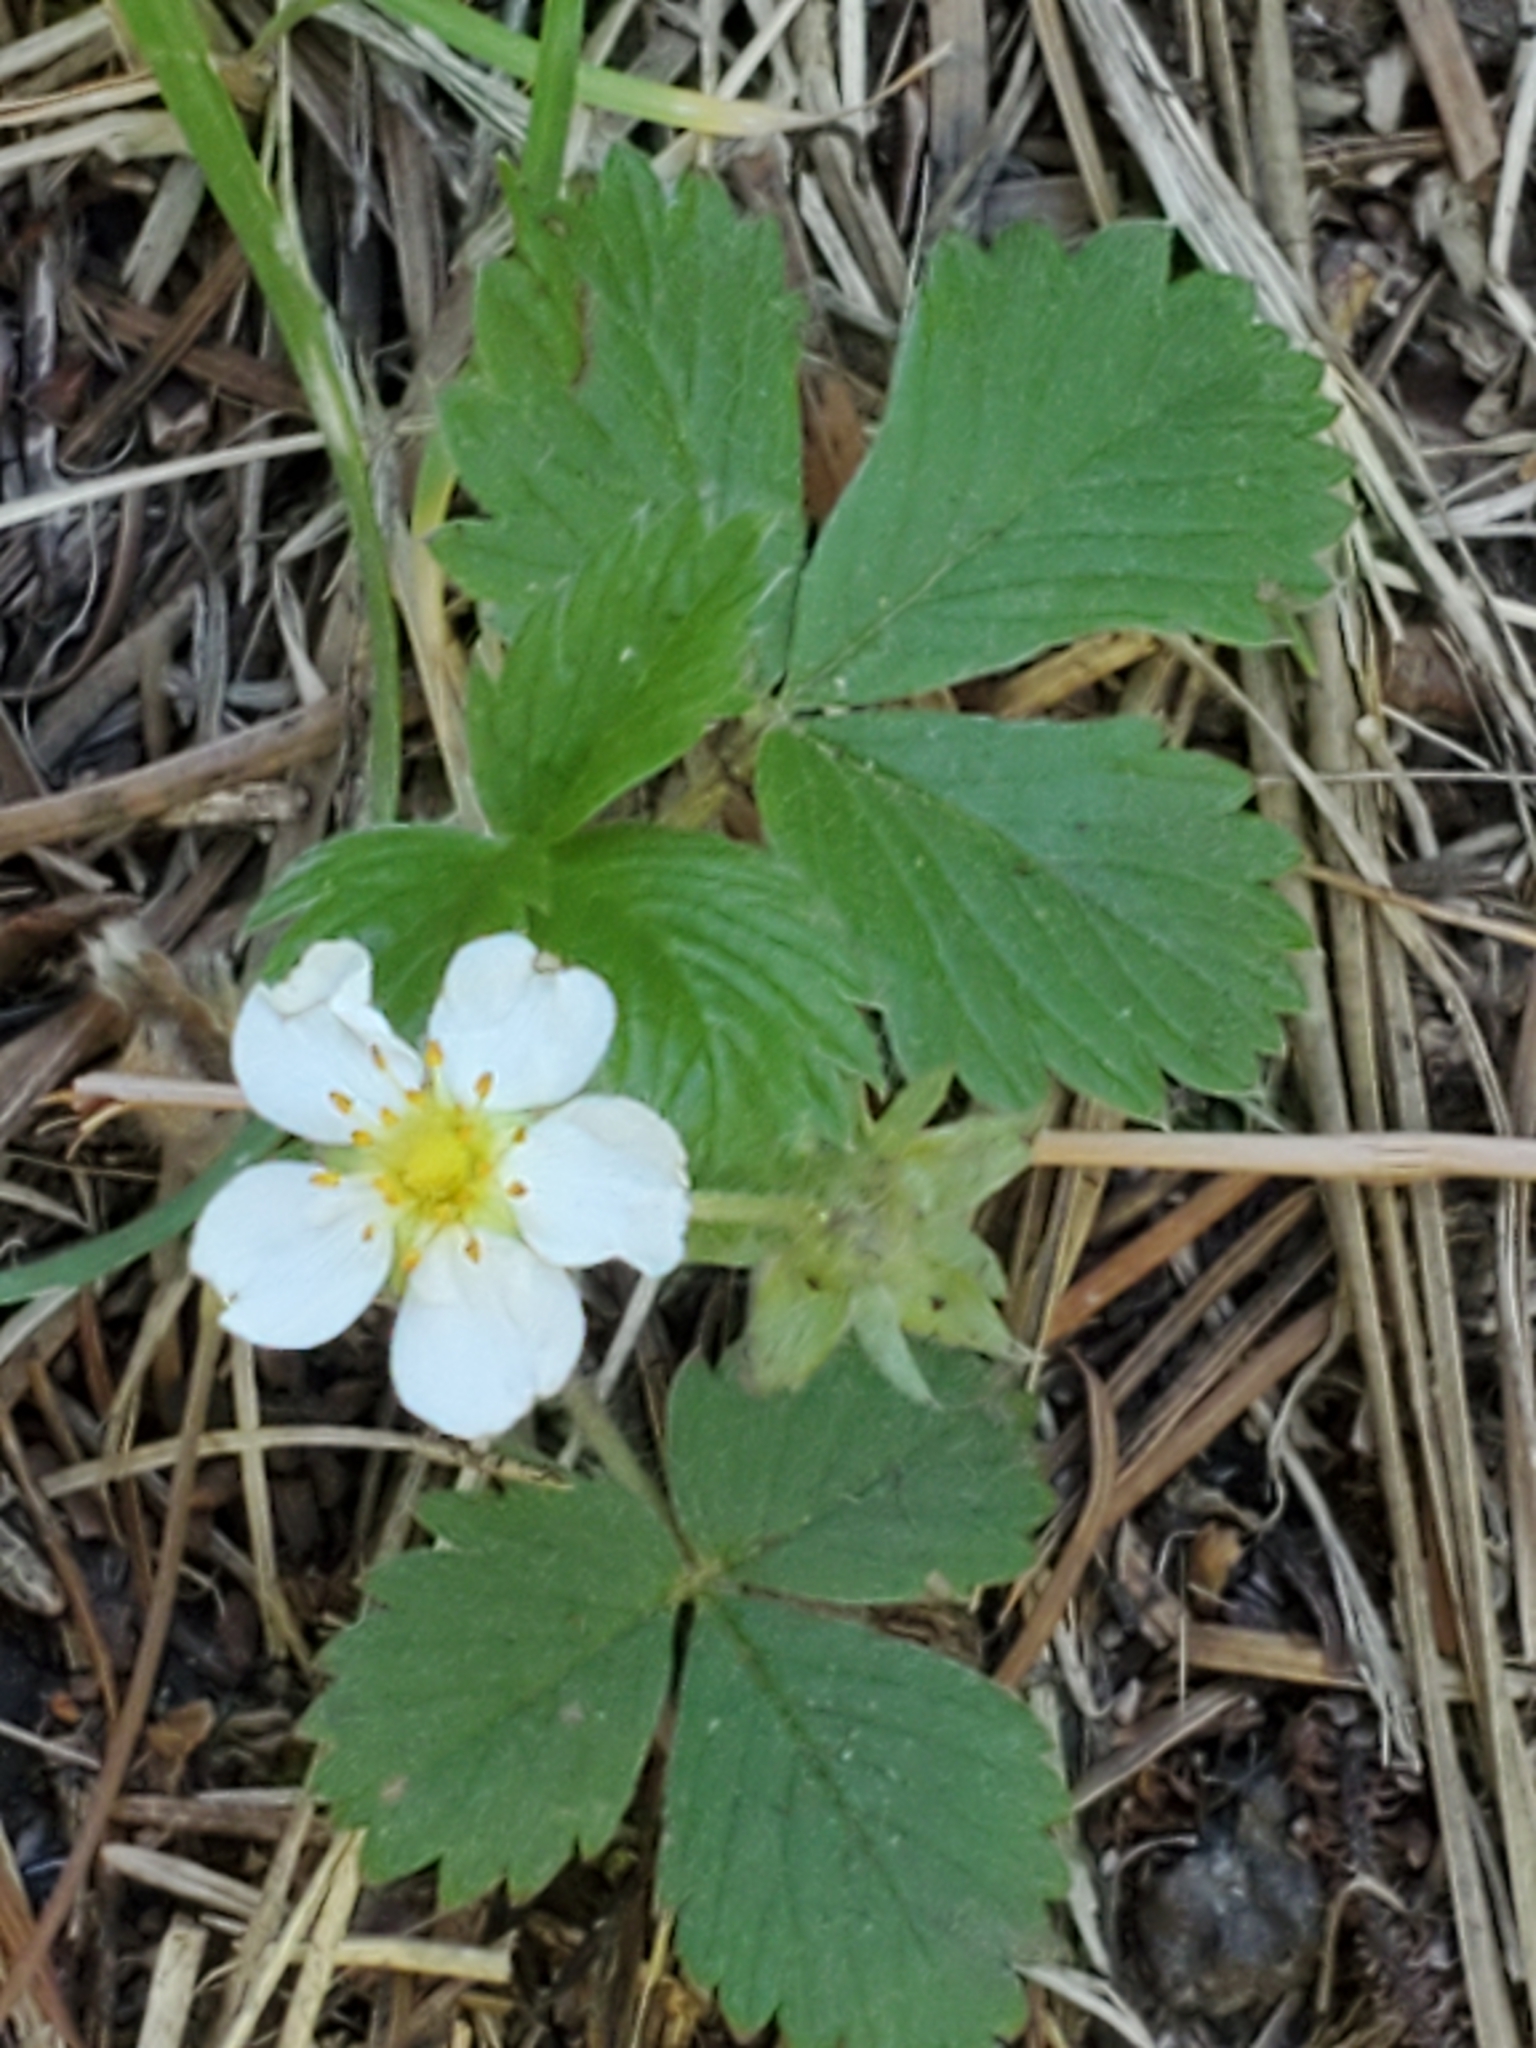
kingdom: Plantae
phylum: Tracheophyta
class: Magnoliopsida
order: Rosales
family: Rosaceae
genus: Fragaria
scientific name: Fragaria vesca
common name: Wild strawberry
